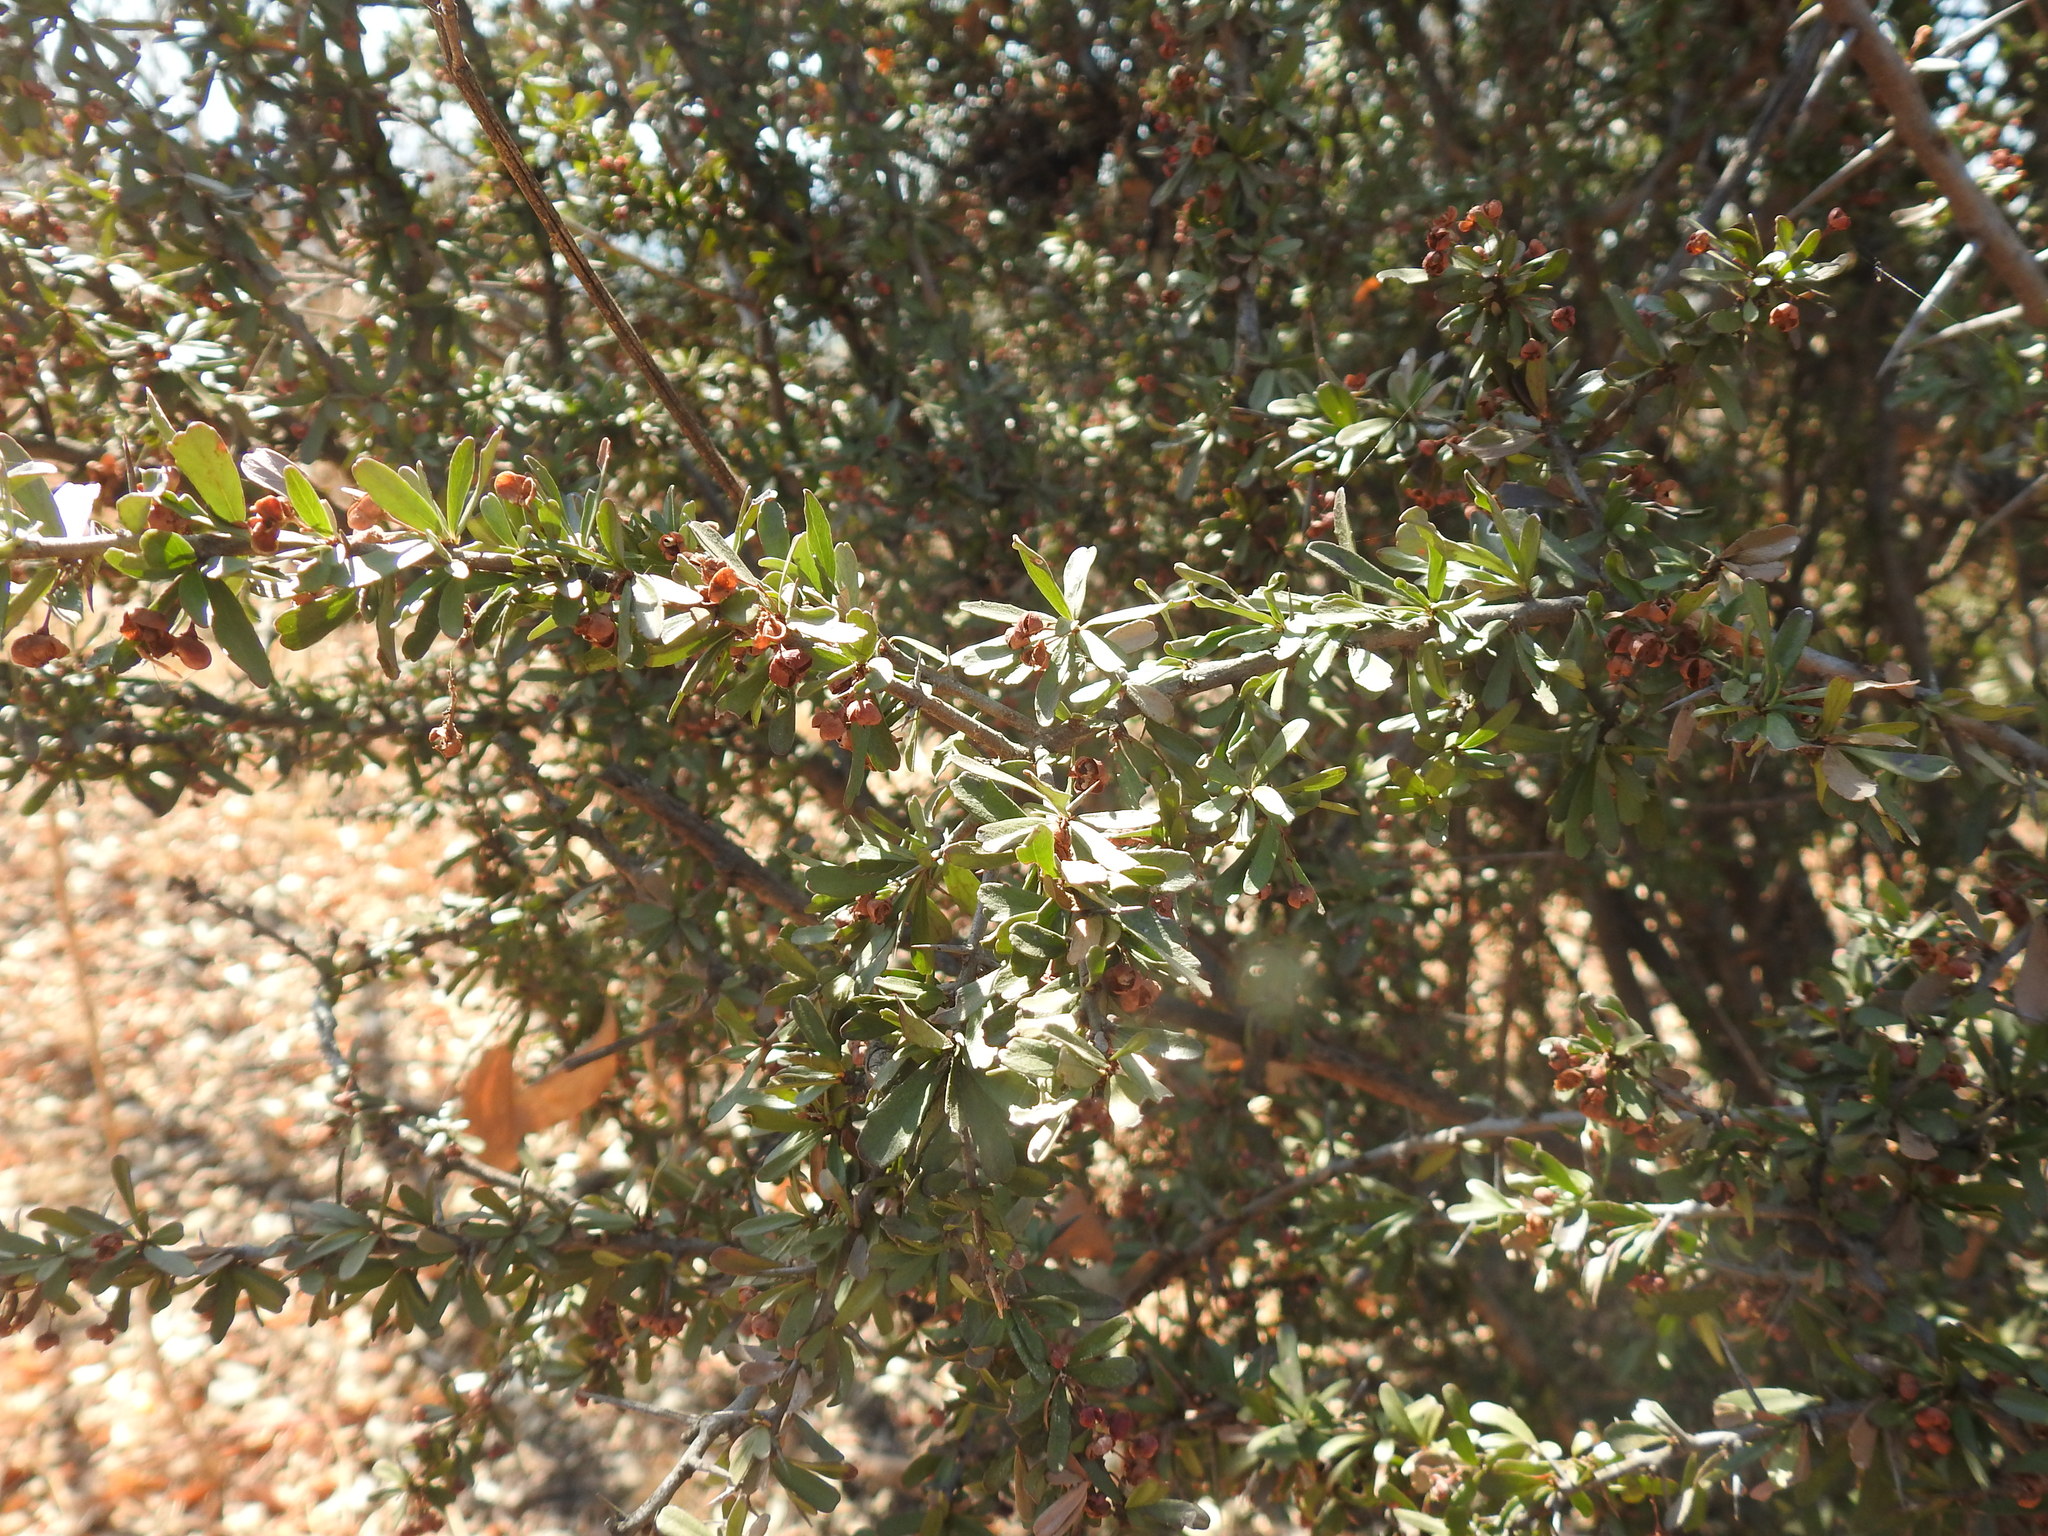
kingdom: Plantae
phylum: Tracheophyta
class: Magnoliopsida
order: Celastrales
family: Celastraceae
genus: Gymnosporia
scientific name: Gymnosporia polyacantha
